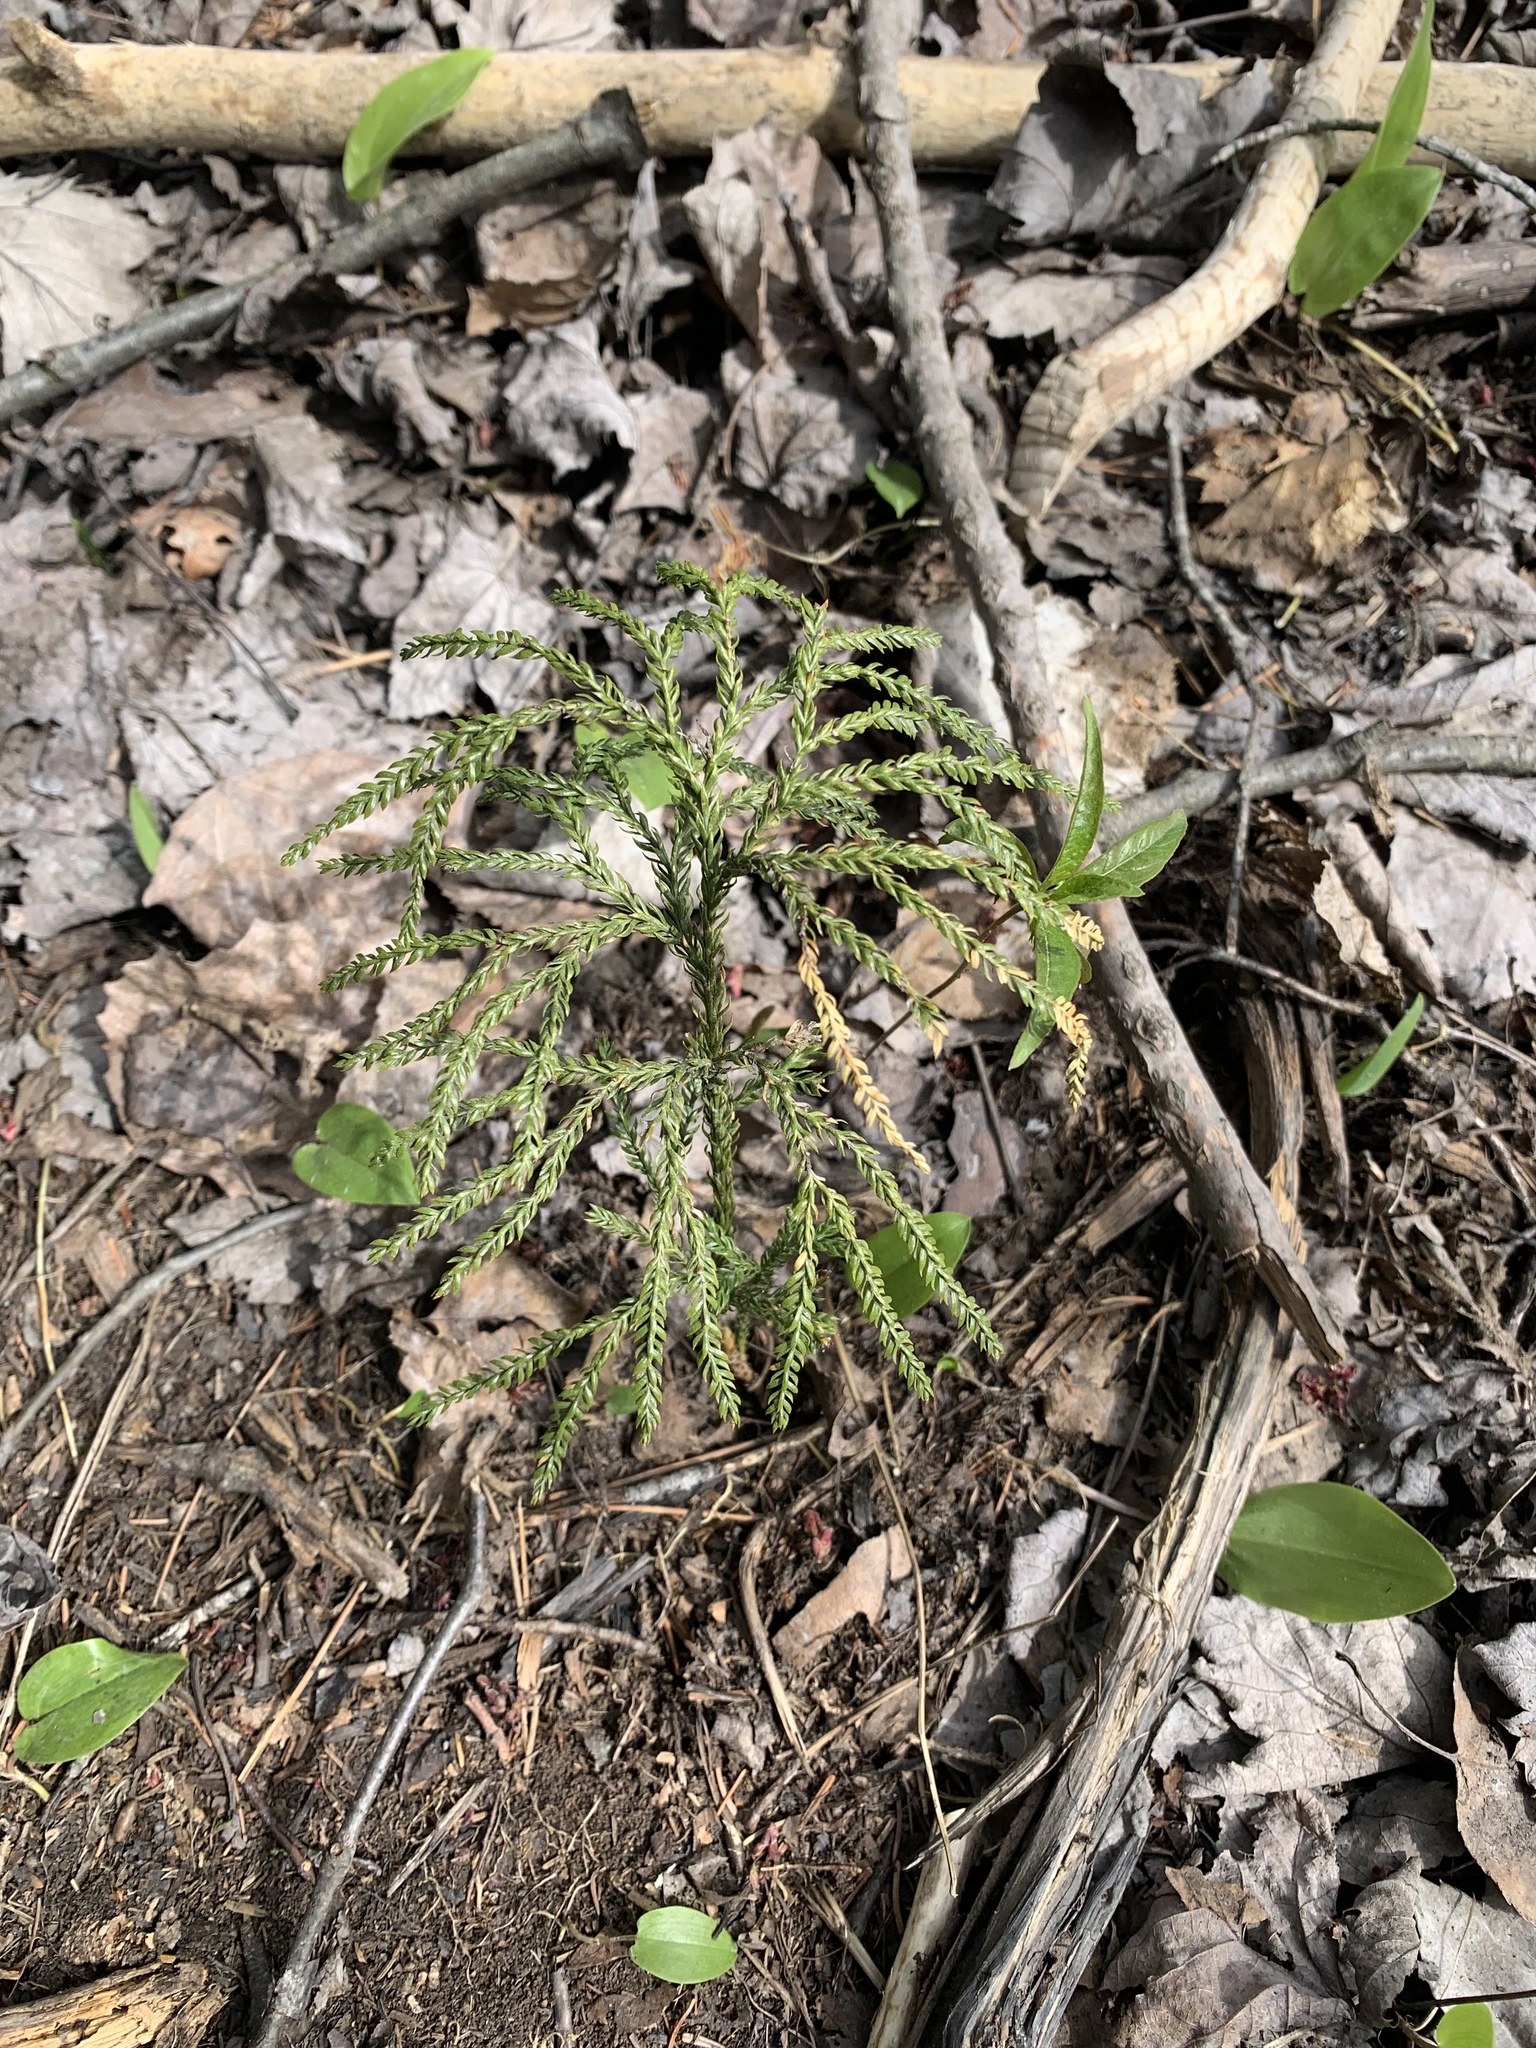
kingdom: Plantae
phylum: Tracheophyta
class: Lycopodiopsida
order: Lycopodiales
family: Lycopodiaceae
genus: Dendrolycopodium
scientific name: Dendrolycopodium obscurum
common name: Common ground-pine
